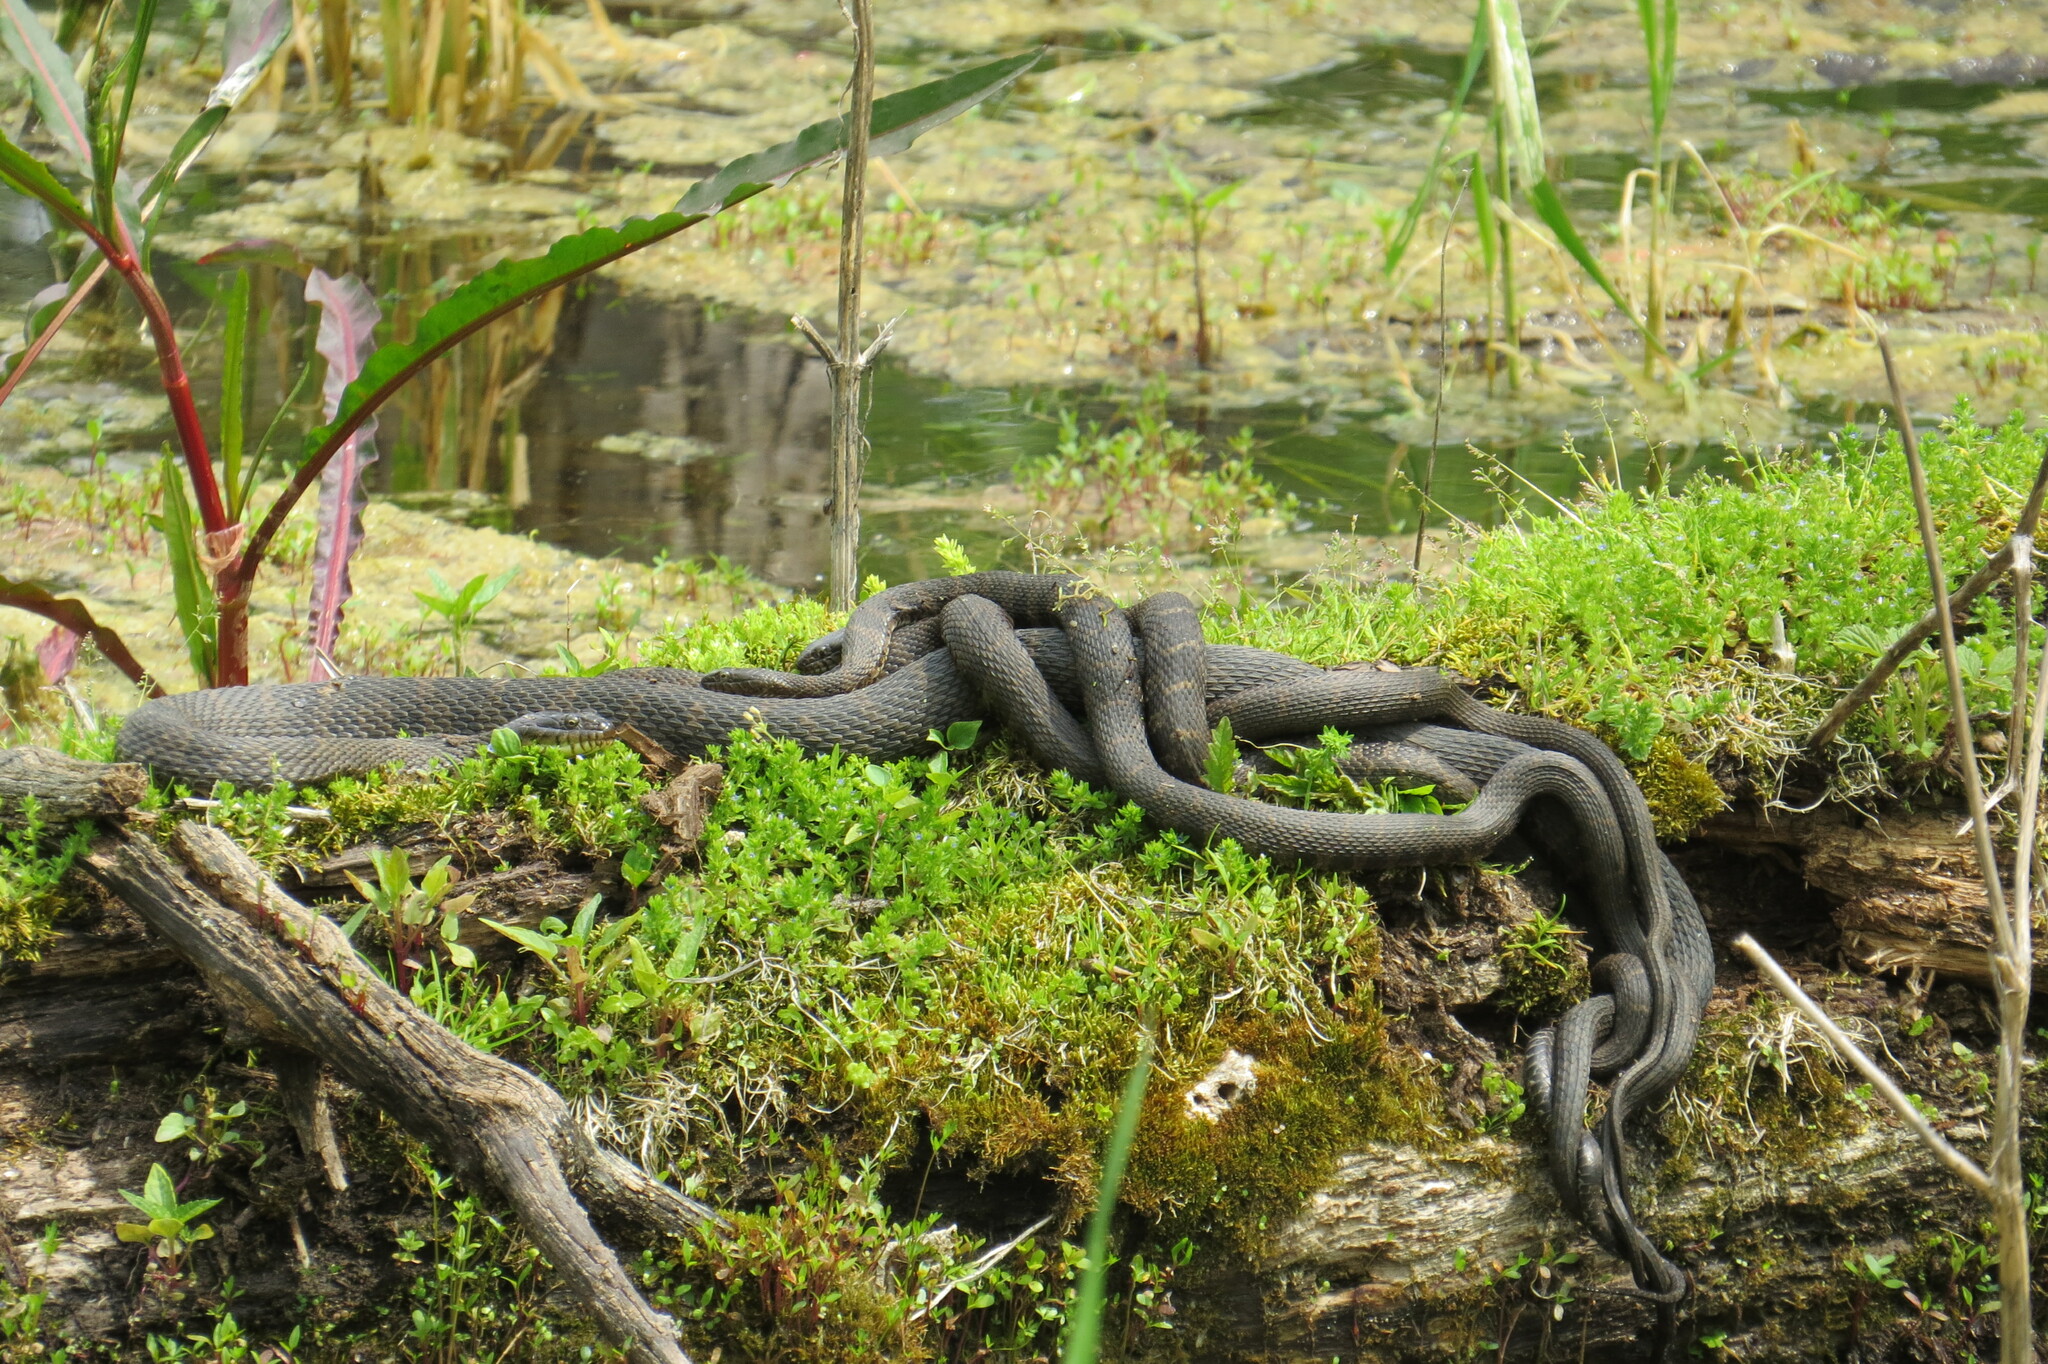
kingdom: Animalia
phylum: Chordata
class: Squamata
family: Colubridae
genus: Nerodia
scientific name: Nerodia sipedon
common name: Northern water snake
